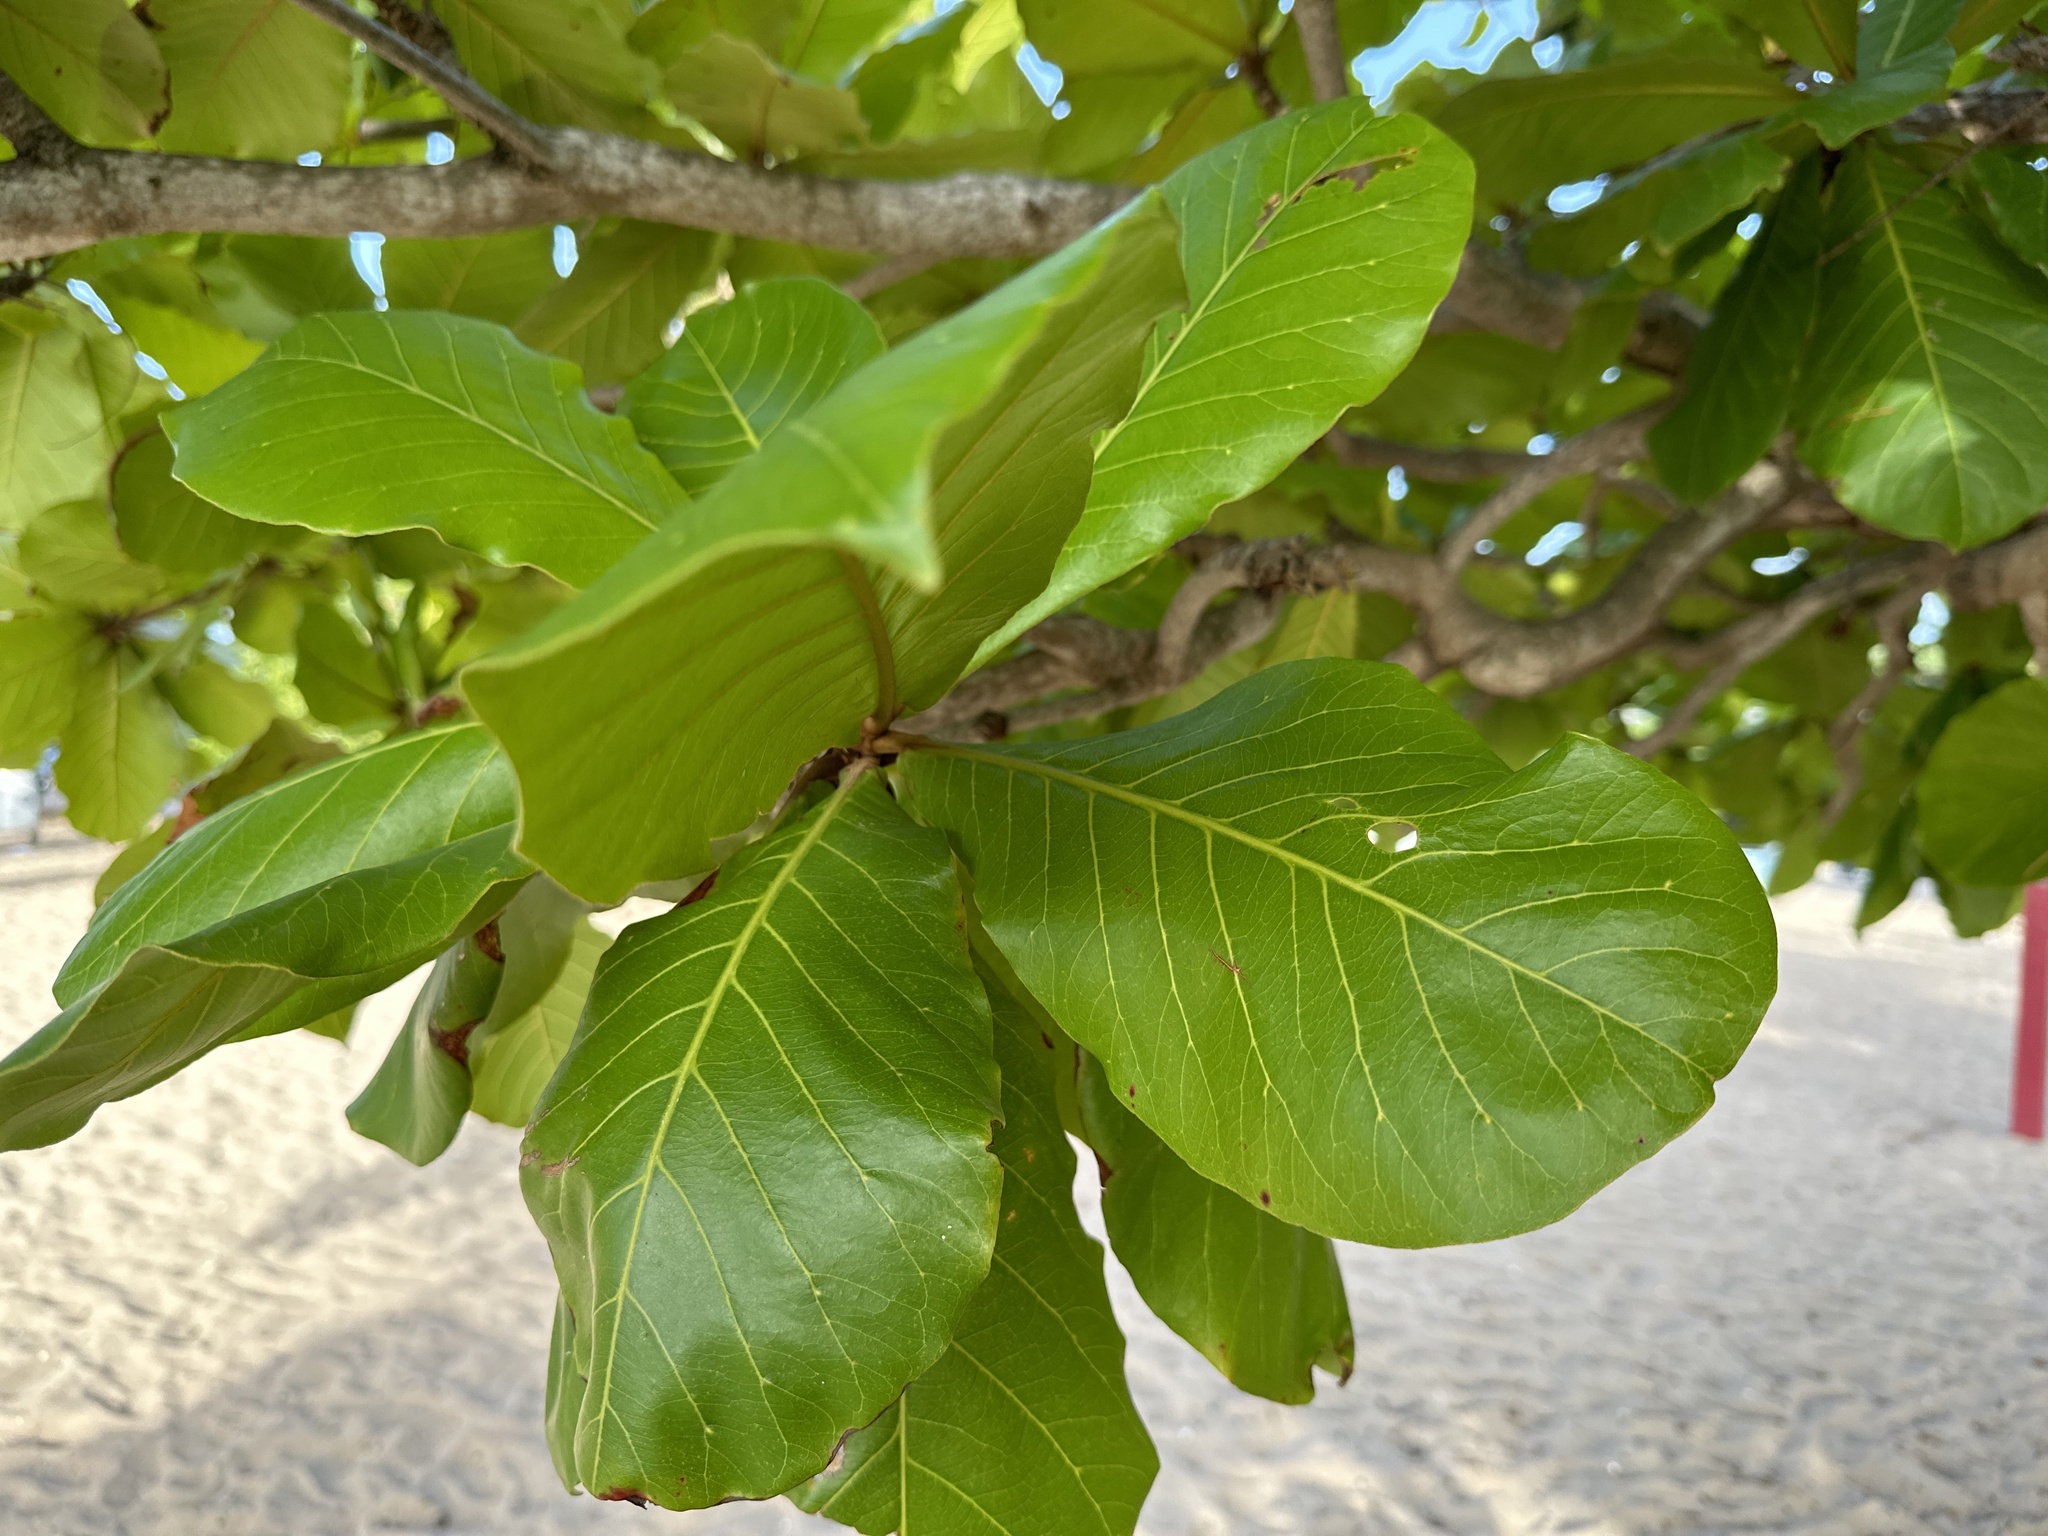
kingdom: Plantae
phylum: Tracheophyta
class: Magnoliopsida
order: Myrtales
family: Combretaceae
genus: Terminalia
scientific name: Terminalia catappa
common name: Tropical almond
